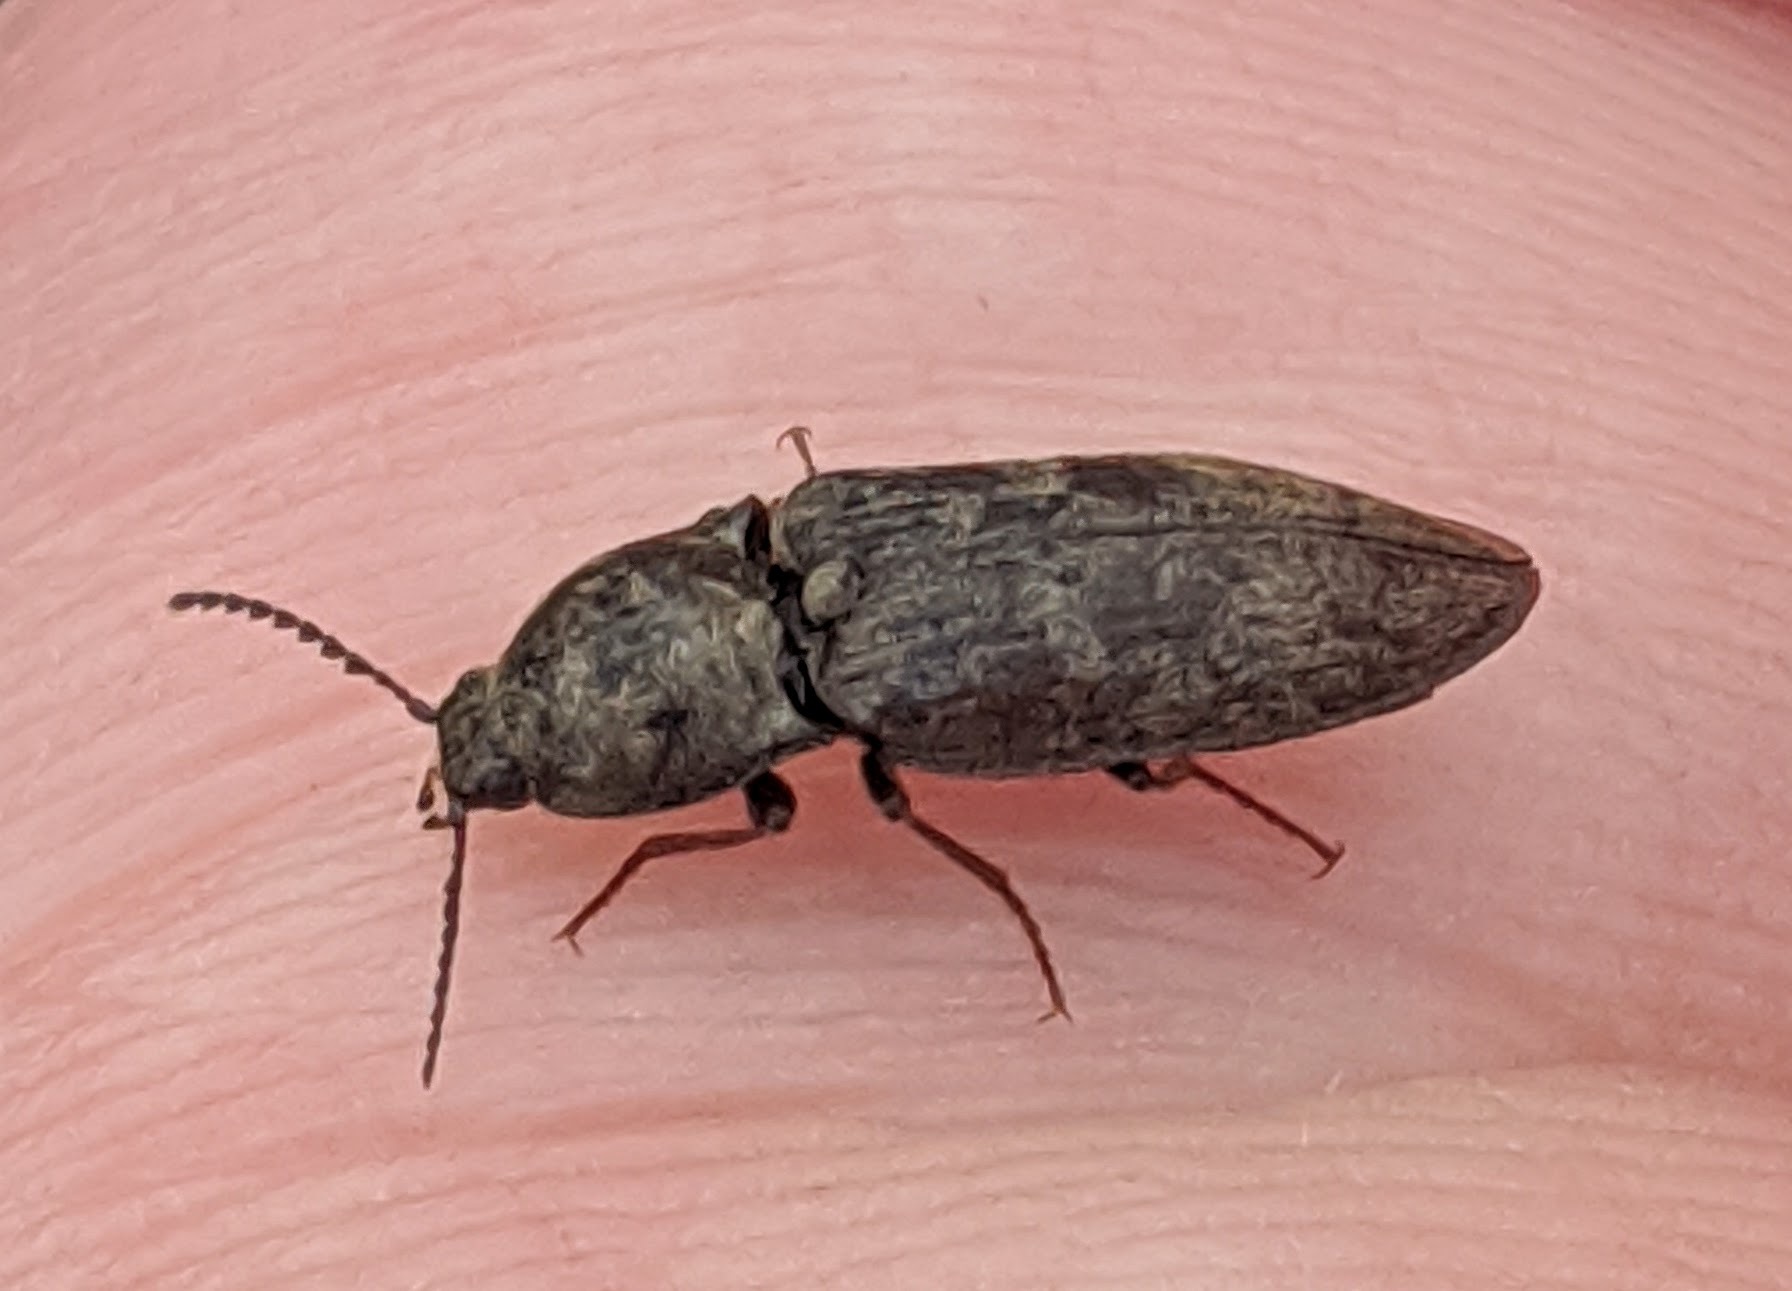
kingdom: Animalia
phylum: Arthropoda
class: Insecta
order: Coleoptera
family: Elateridae
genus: Prosternon
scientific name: Prosternon tessellatum
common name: Chequered click beetle
